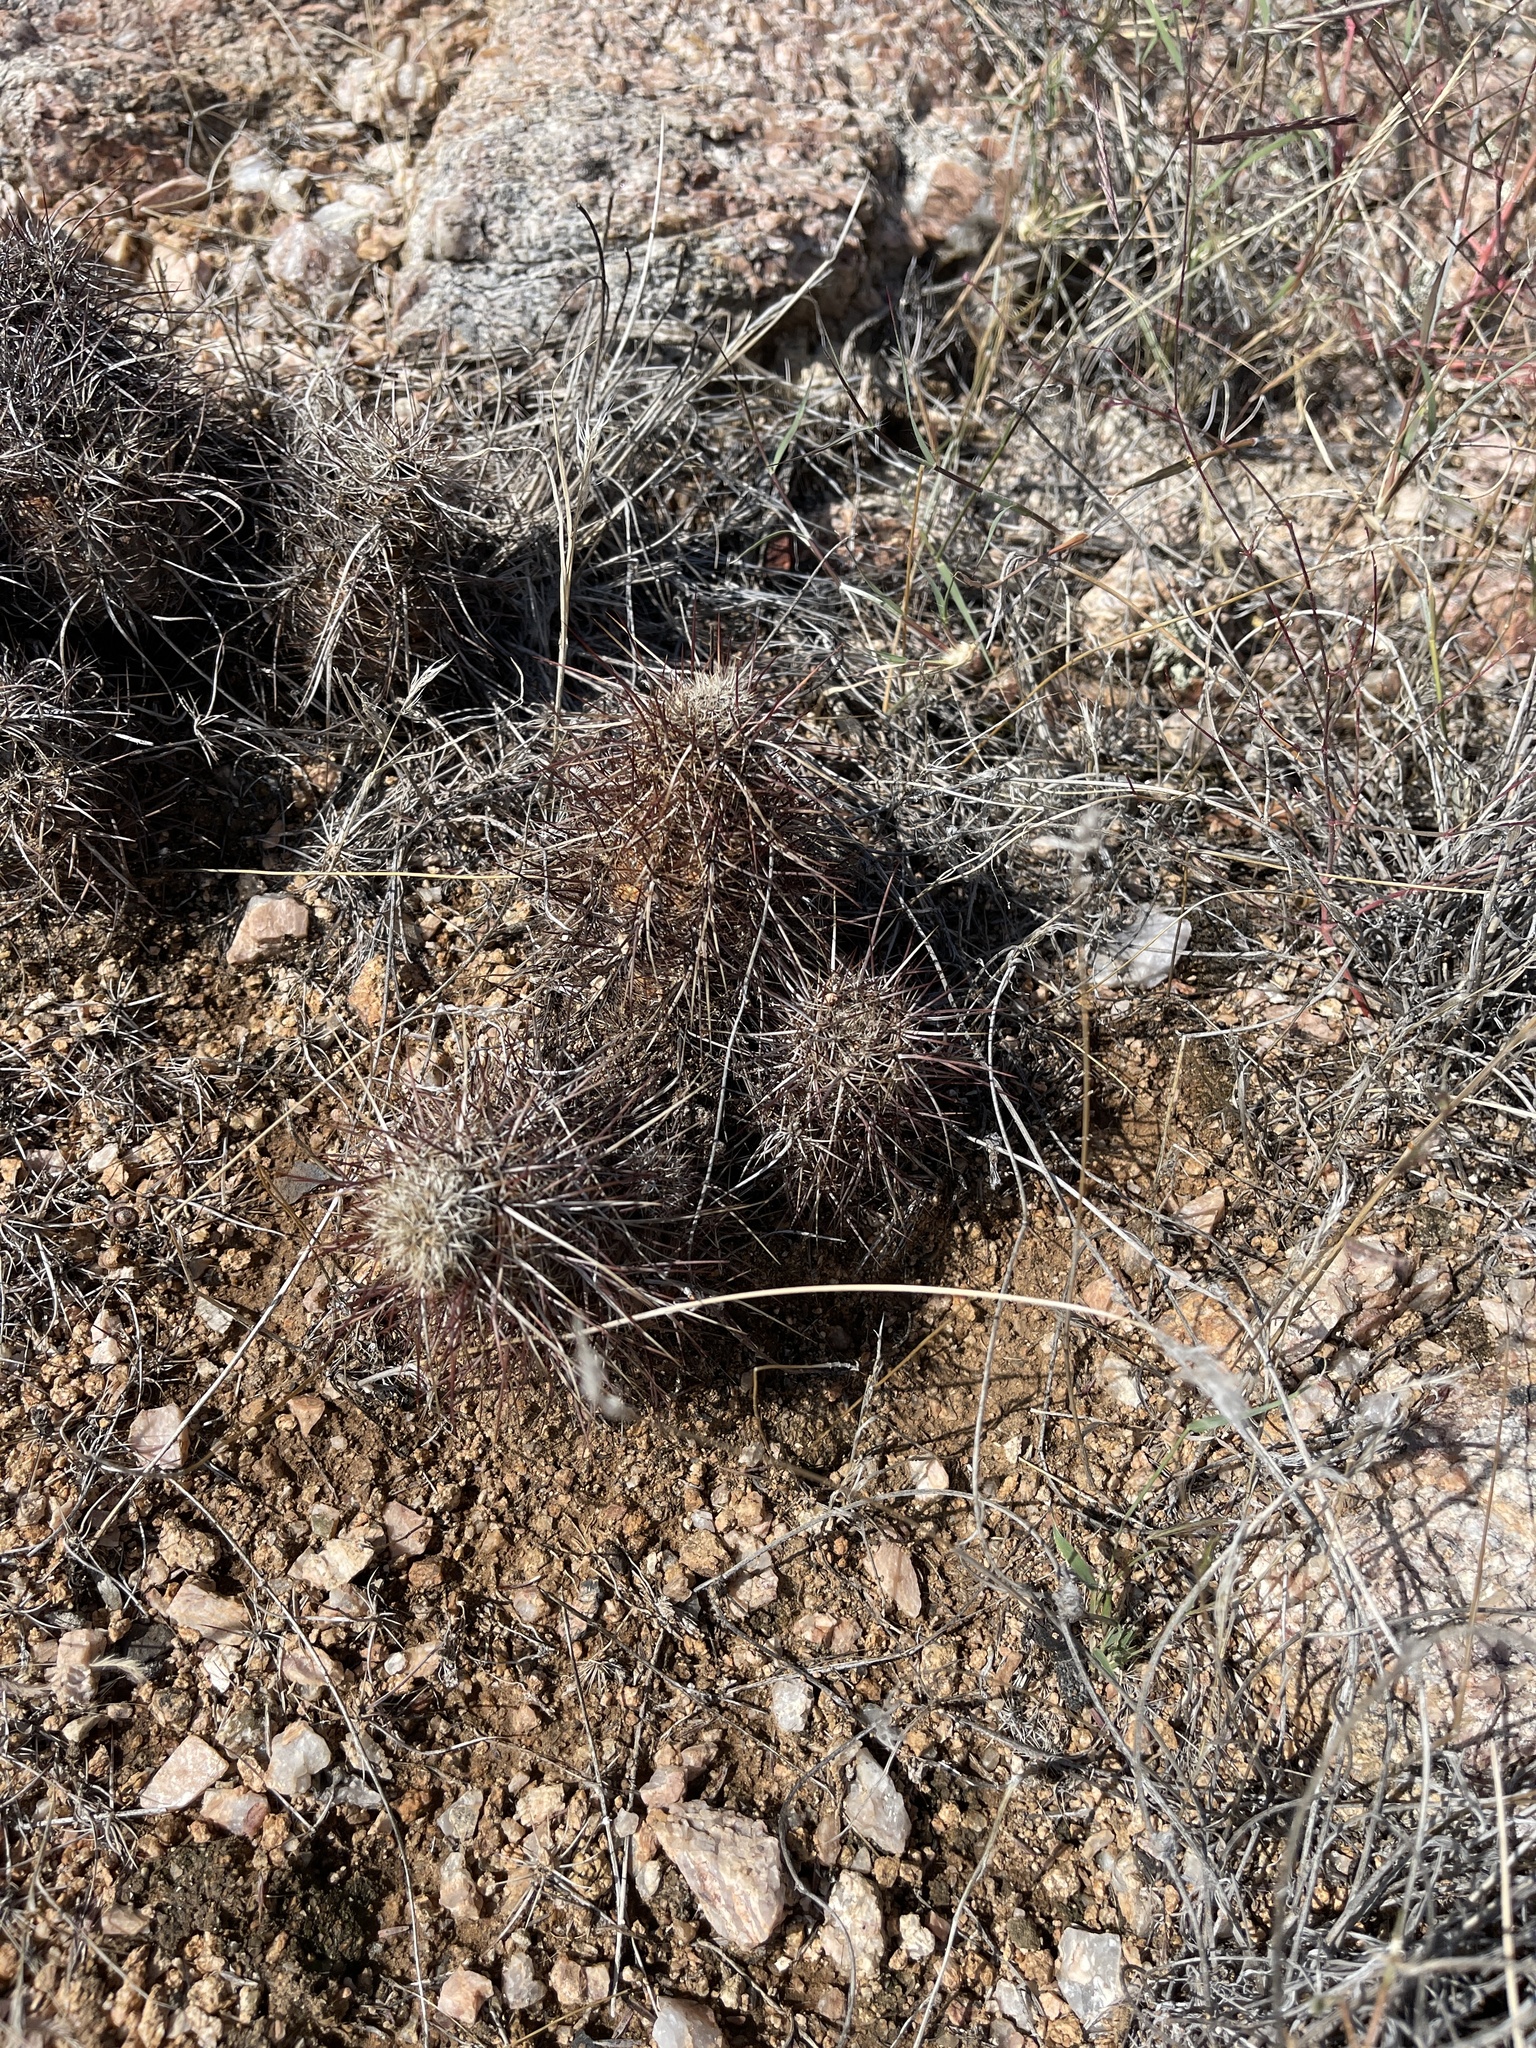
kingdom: Plantae
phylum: Tracheophyta
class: Magnoliopsida
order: Caryophyllales
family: Cactaceae
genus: Echinocereus
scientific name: Echinocereus engelmannii
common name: Engelmann's hedgehog cactus
